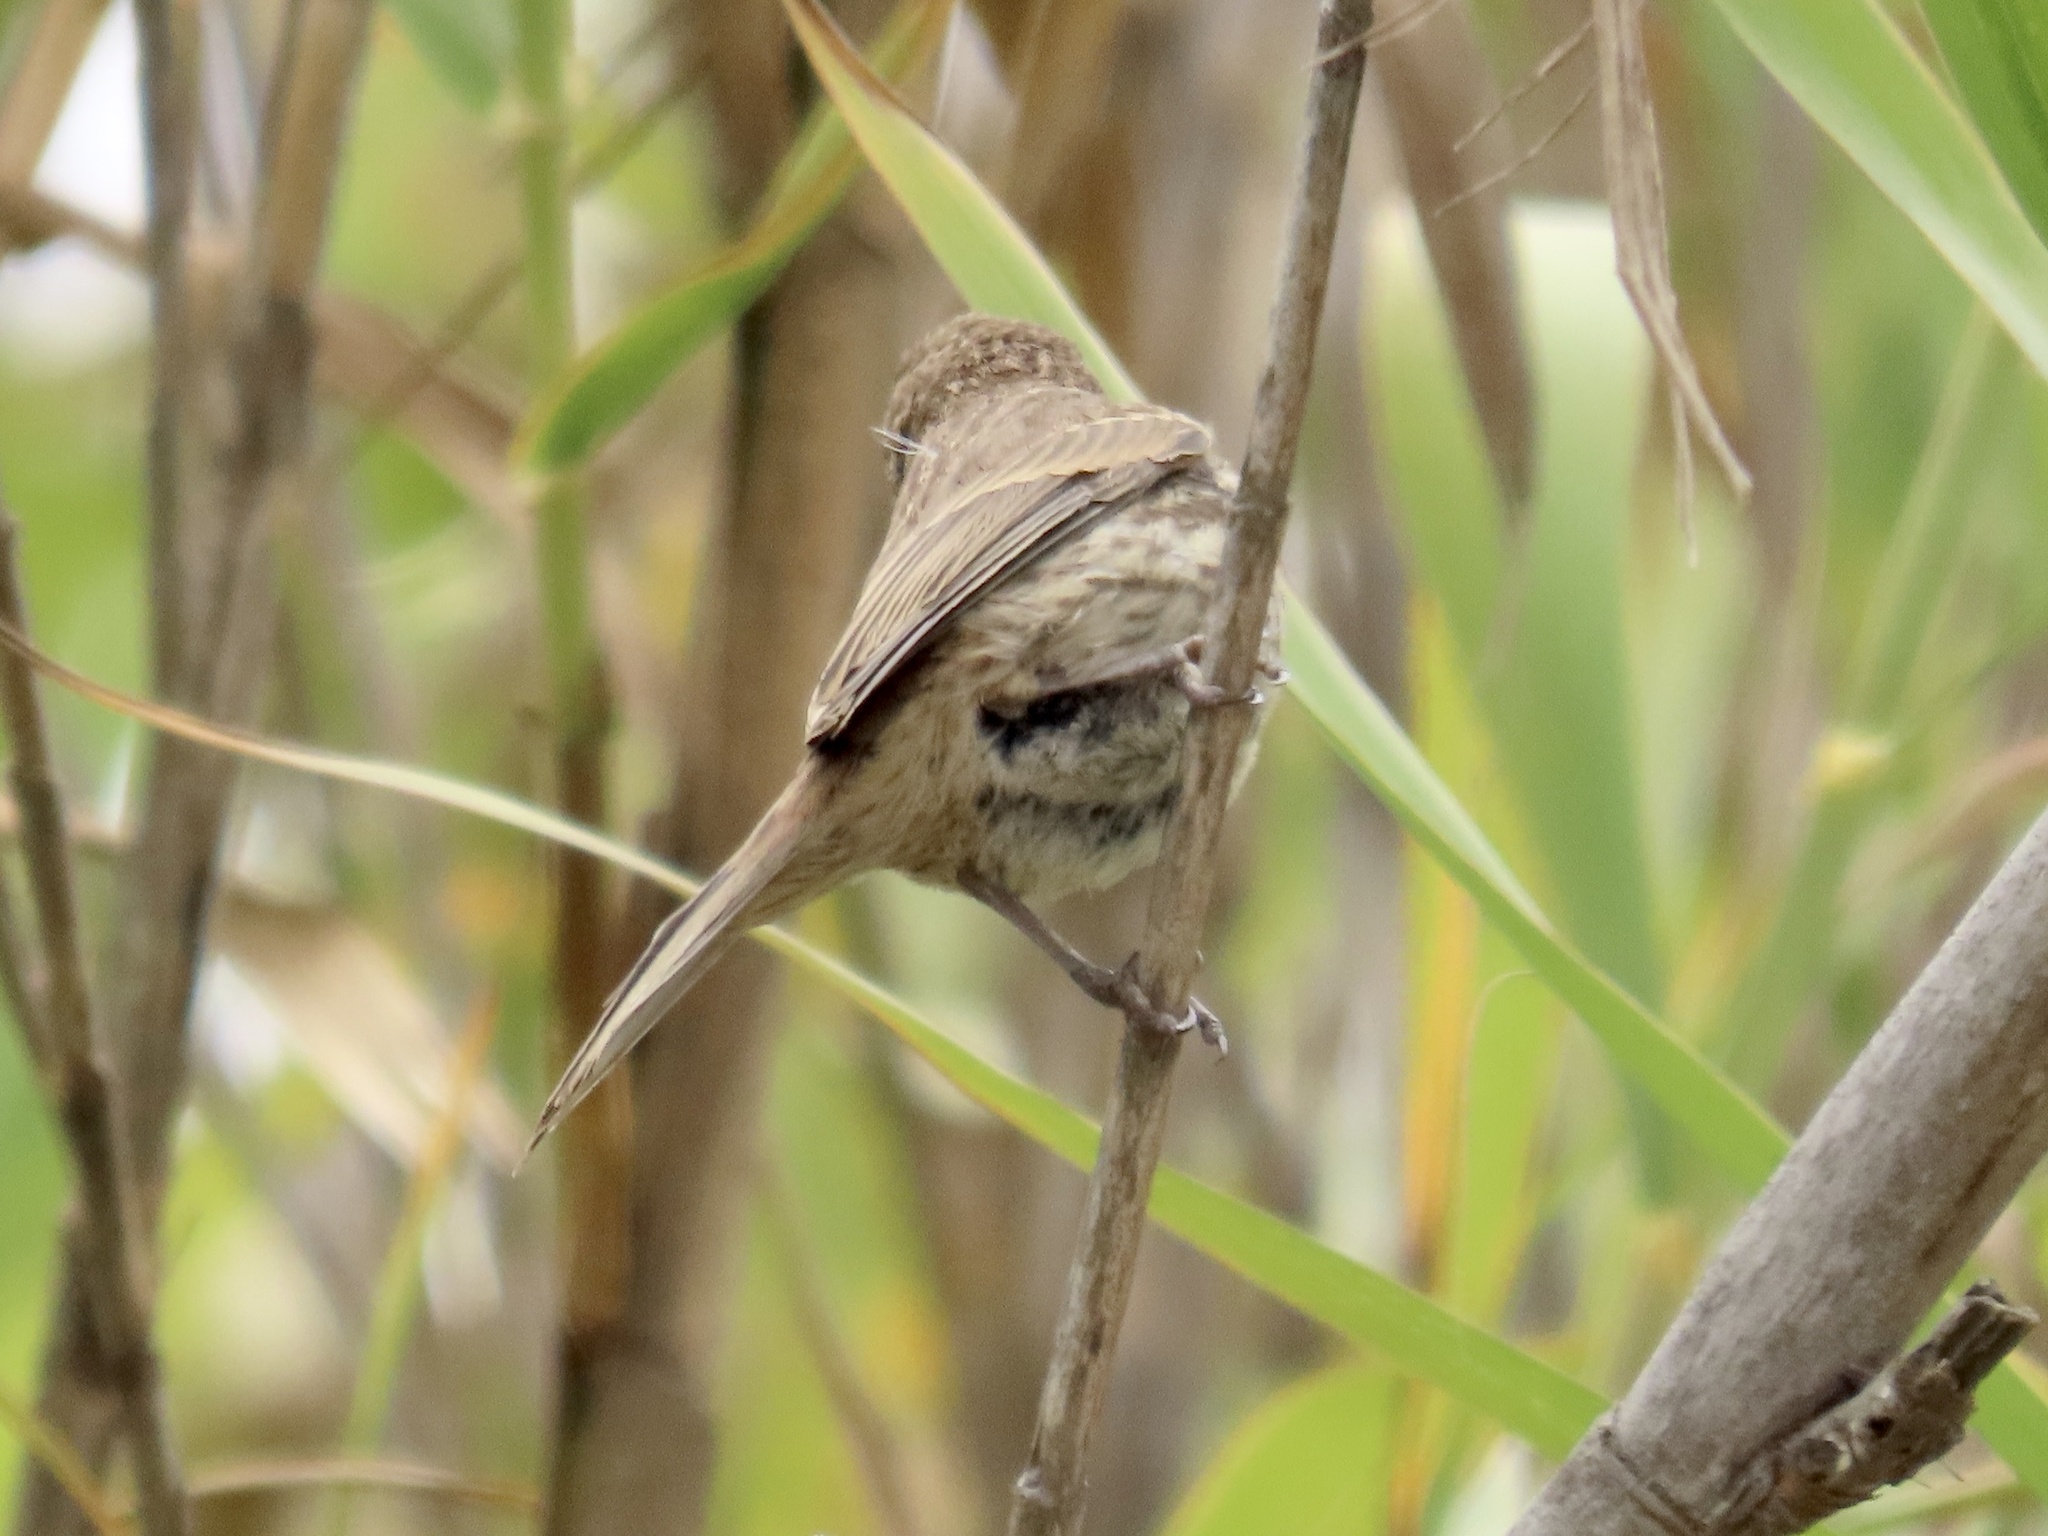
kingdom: Animalia
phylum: Chordata
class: Aves
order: Passeriformes
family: Fringillidae
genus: Haemorhous
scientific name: Haemorhous mexicanus
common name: House finch
